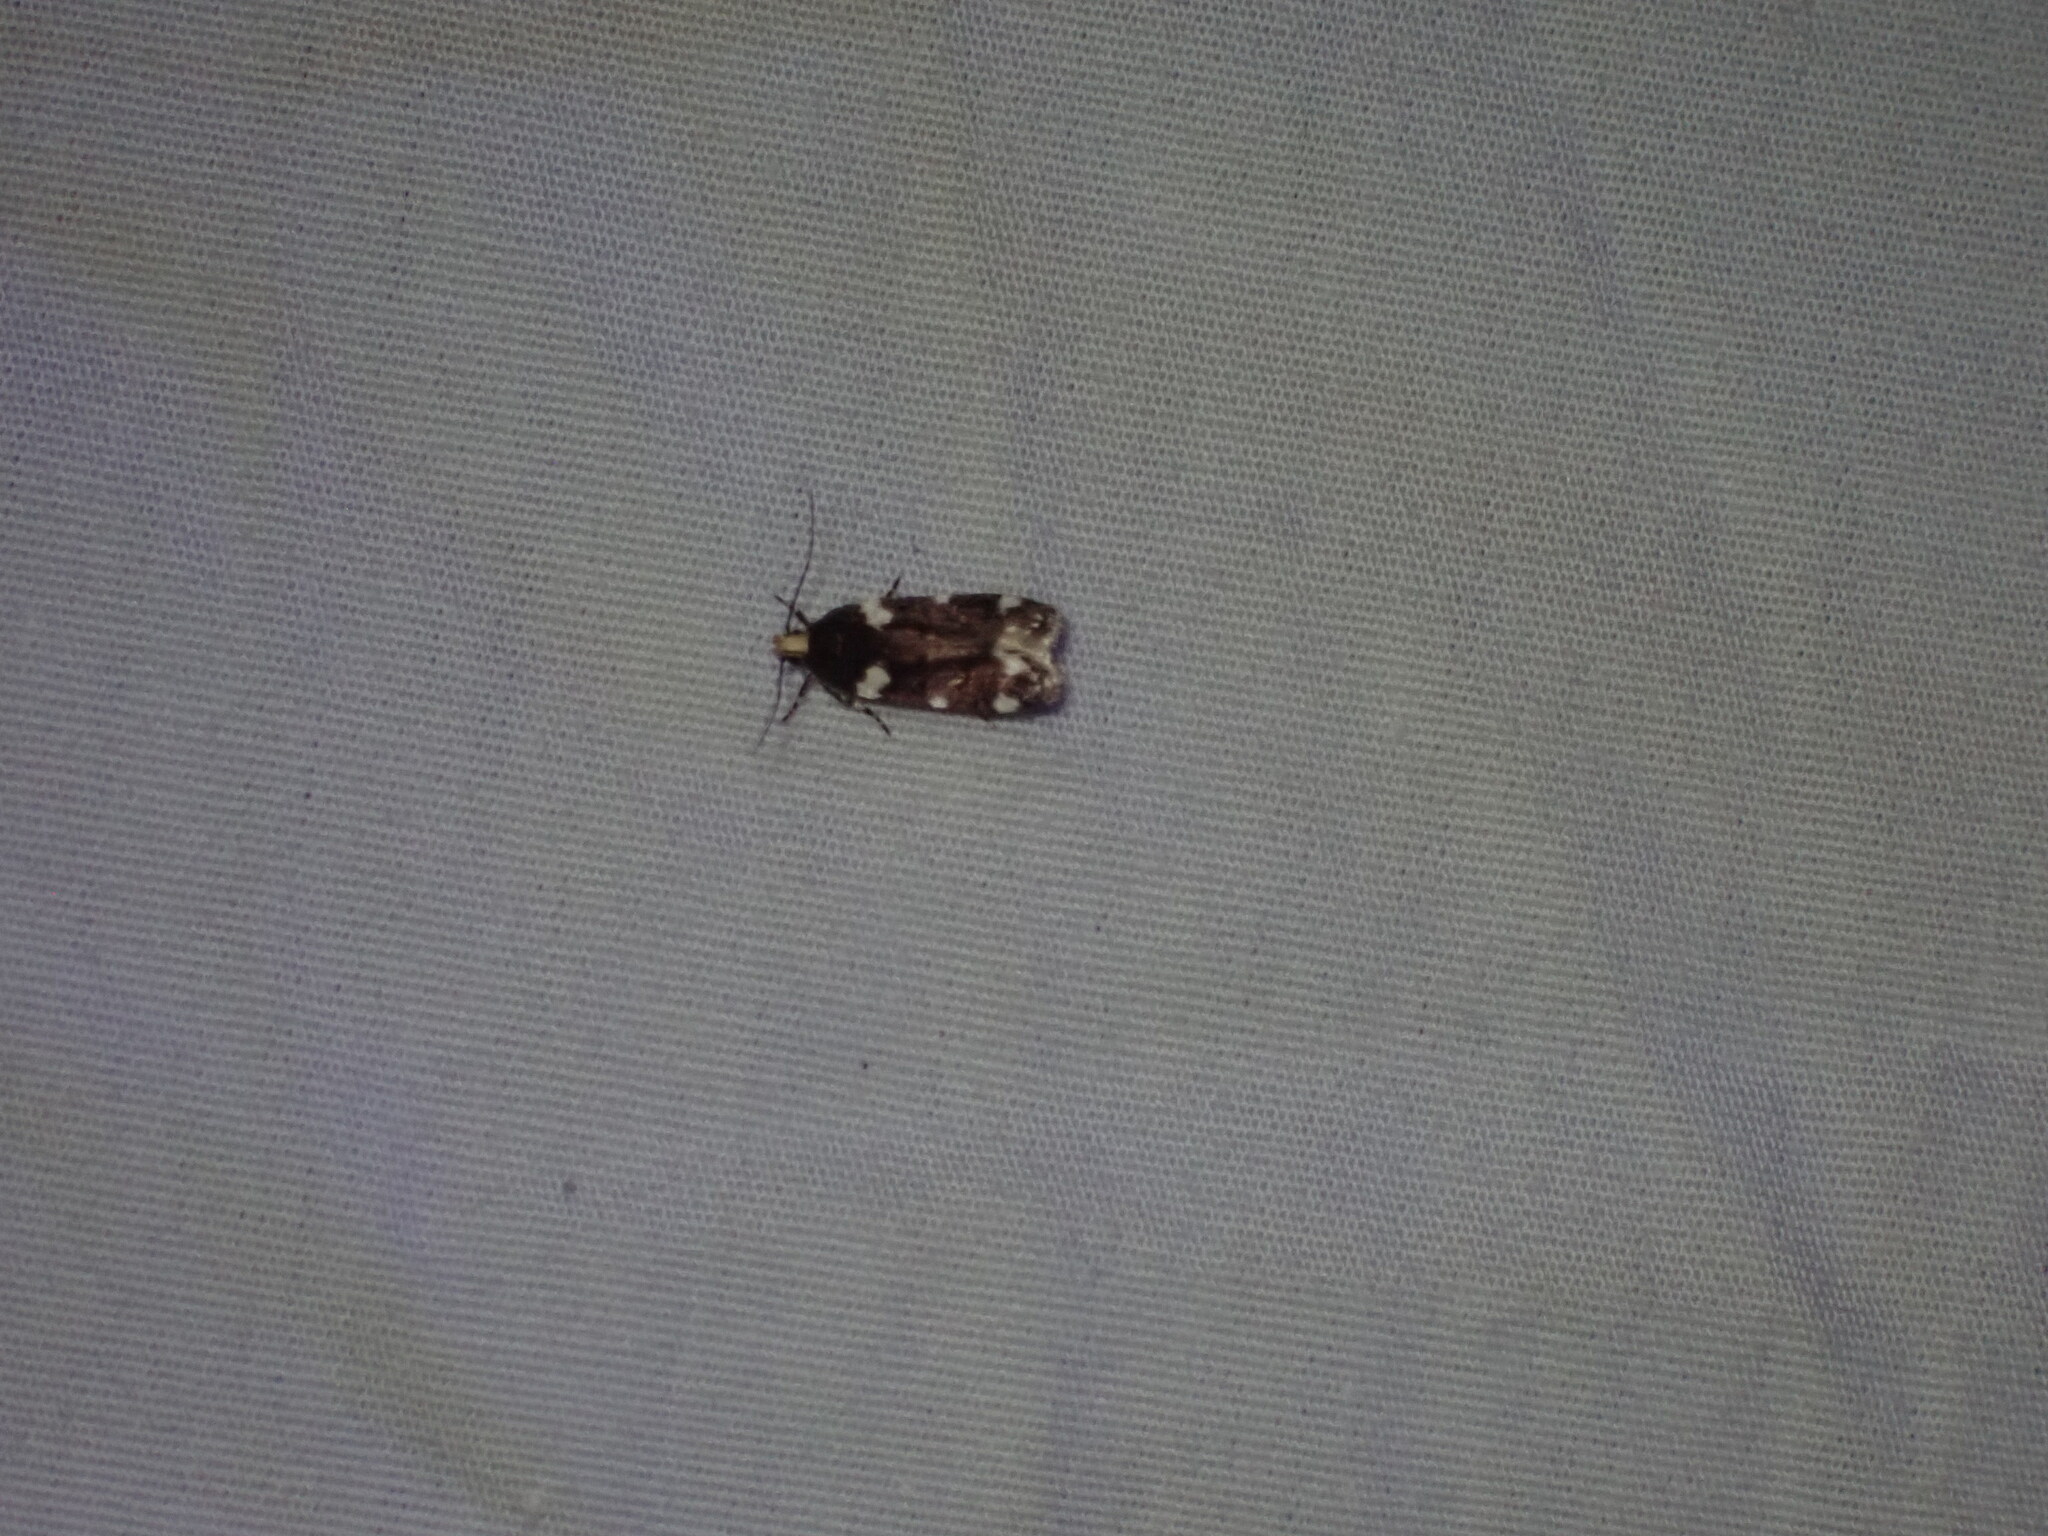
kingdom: Animalia
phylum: Arthropoda
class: Insecta
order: Lepidoptera
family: Gelechiidae
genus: Fascista
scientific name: Fascista cercerisella
